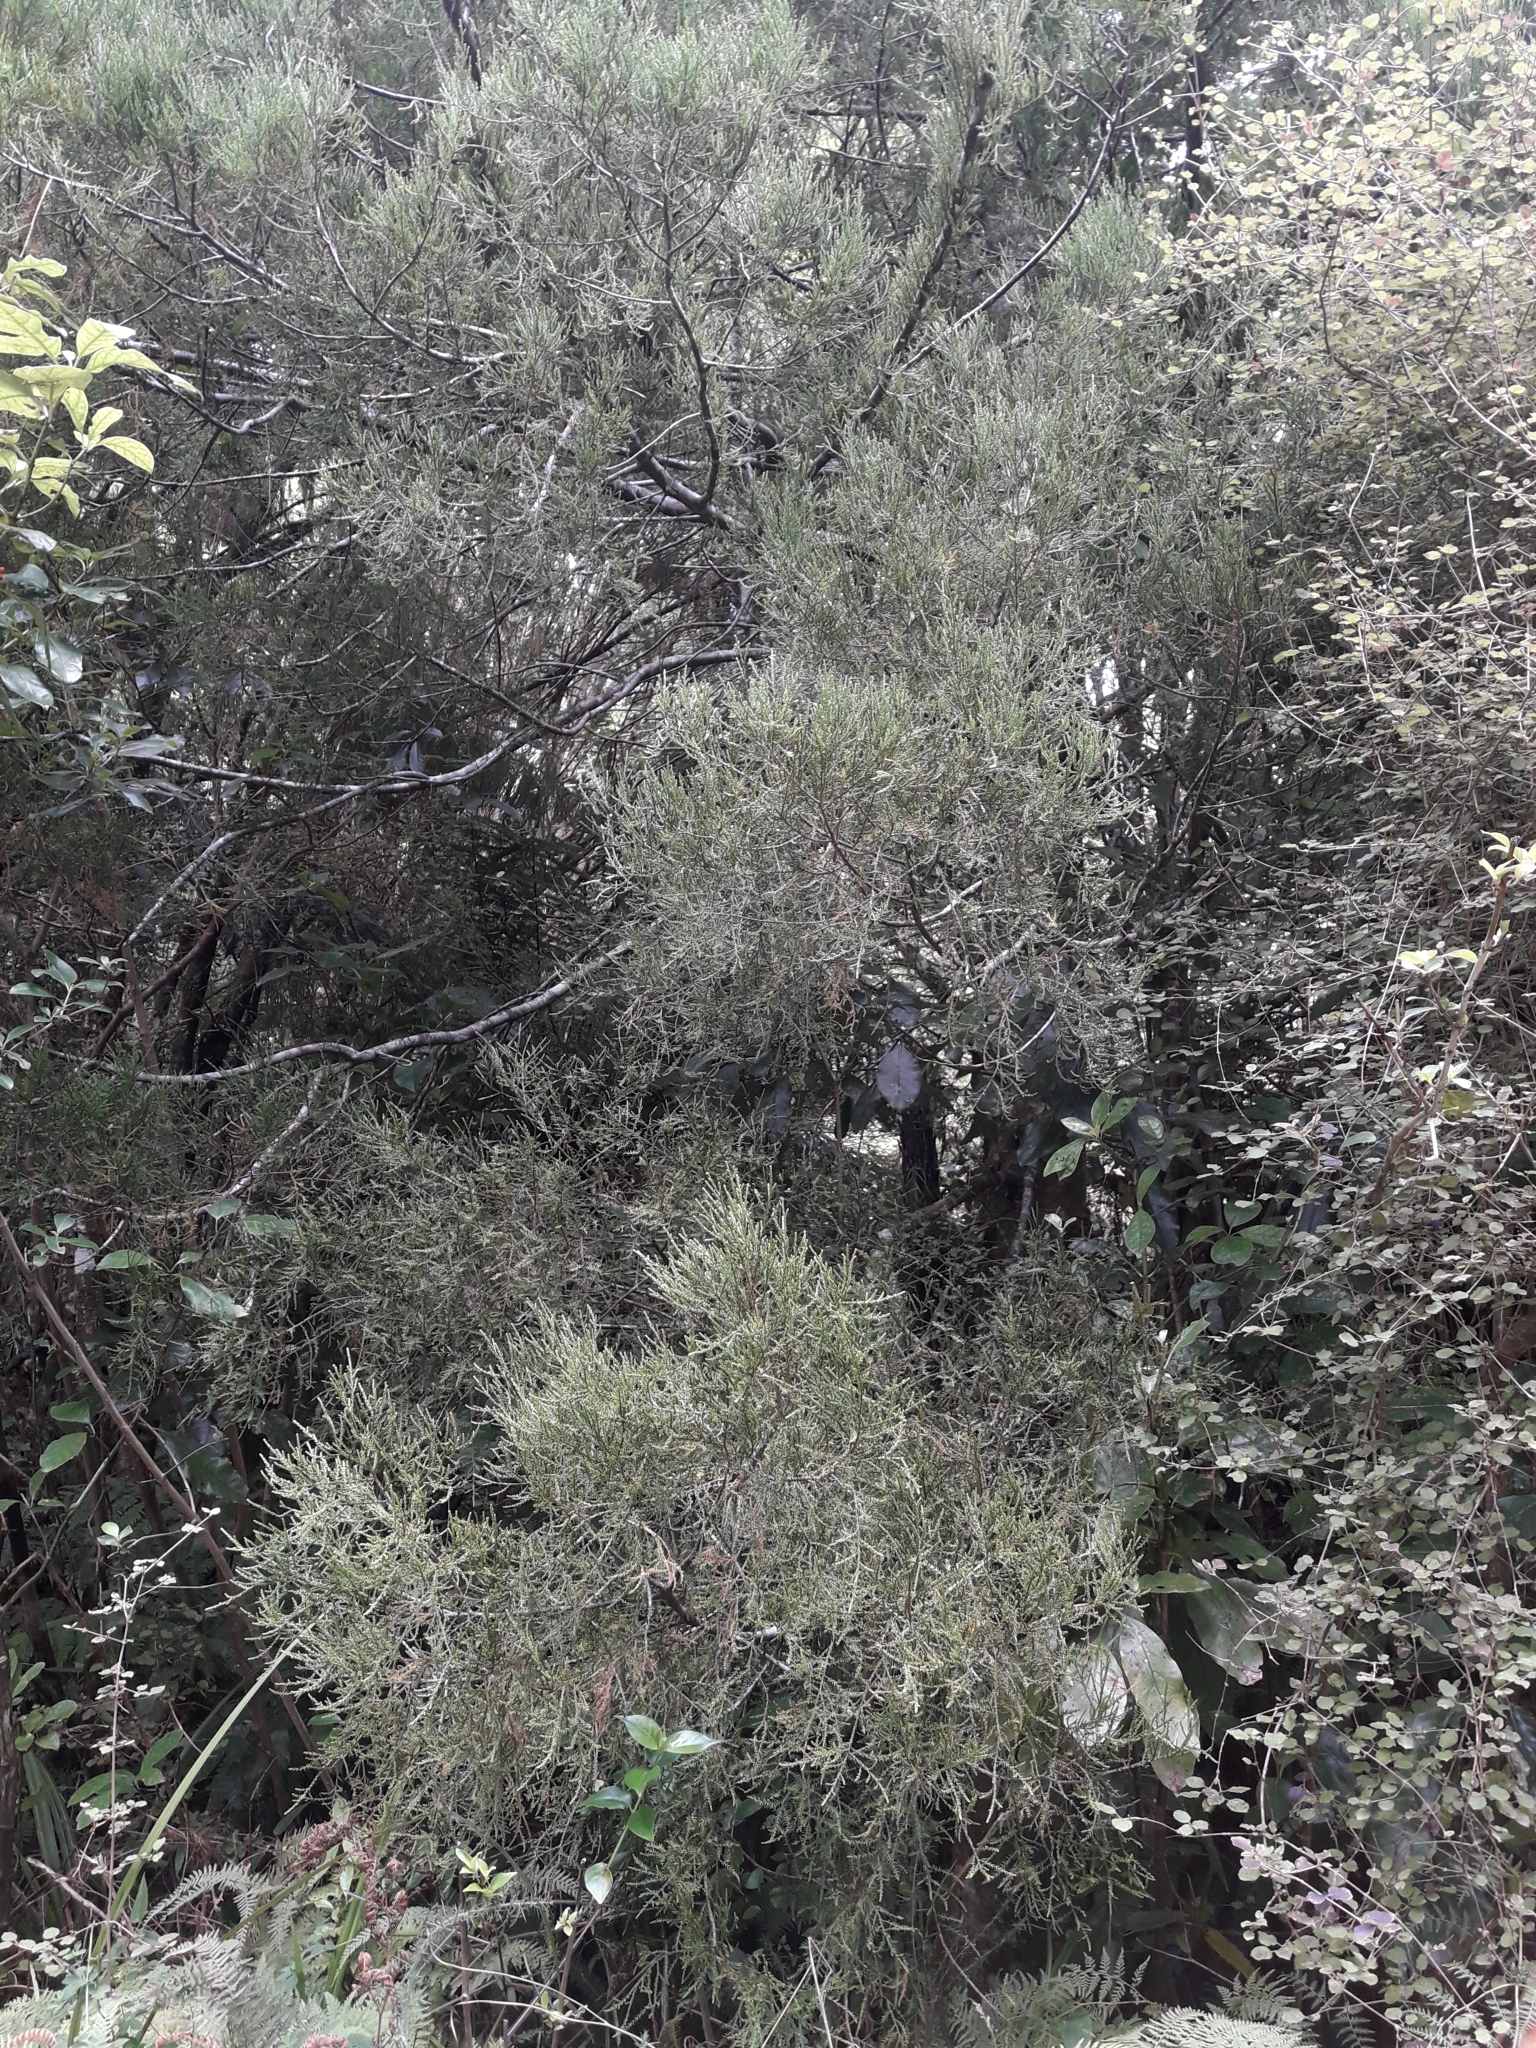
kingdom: Plantae
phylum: Tracheophyta
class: Pinopsida
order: Pinales
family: Podocarpaceae
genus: Dacrycarpus
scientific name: Dacrycarpus dacrydioides
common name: White pine
